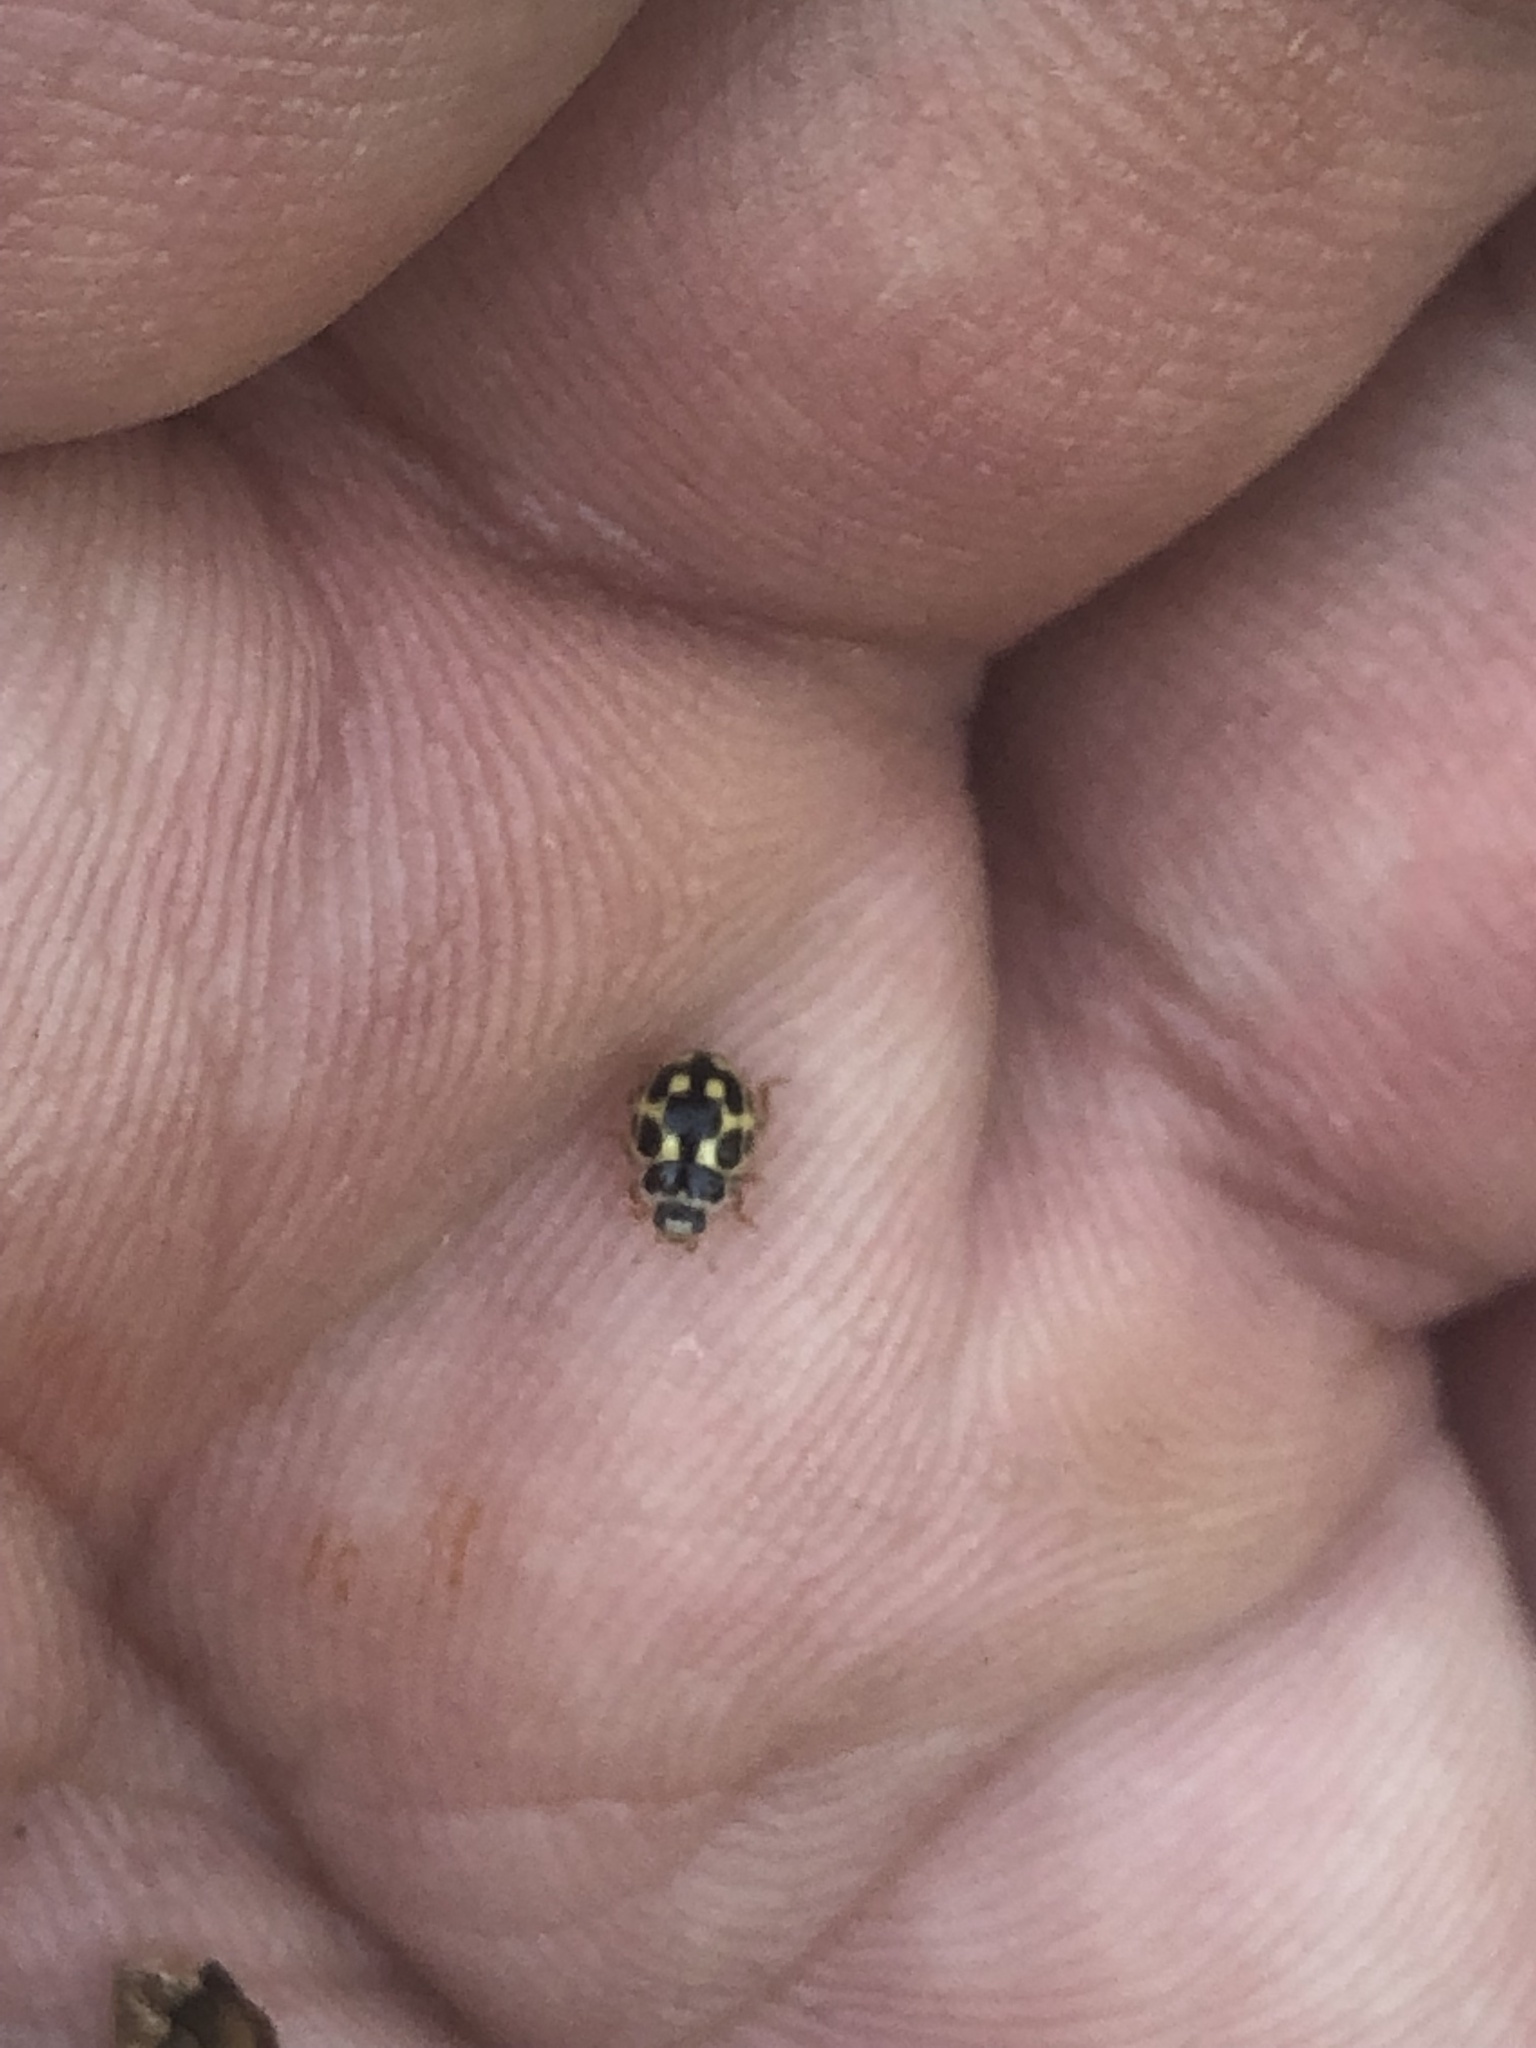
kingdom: Animalia
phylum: Arthropoda
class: Insecta
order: Coleoptera
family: Coccinellidae
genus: Propylaea
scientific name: Propylaea quatuordecimpunctata
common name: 14-spotted ladybird beetle
